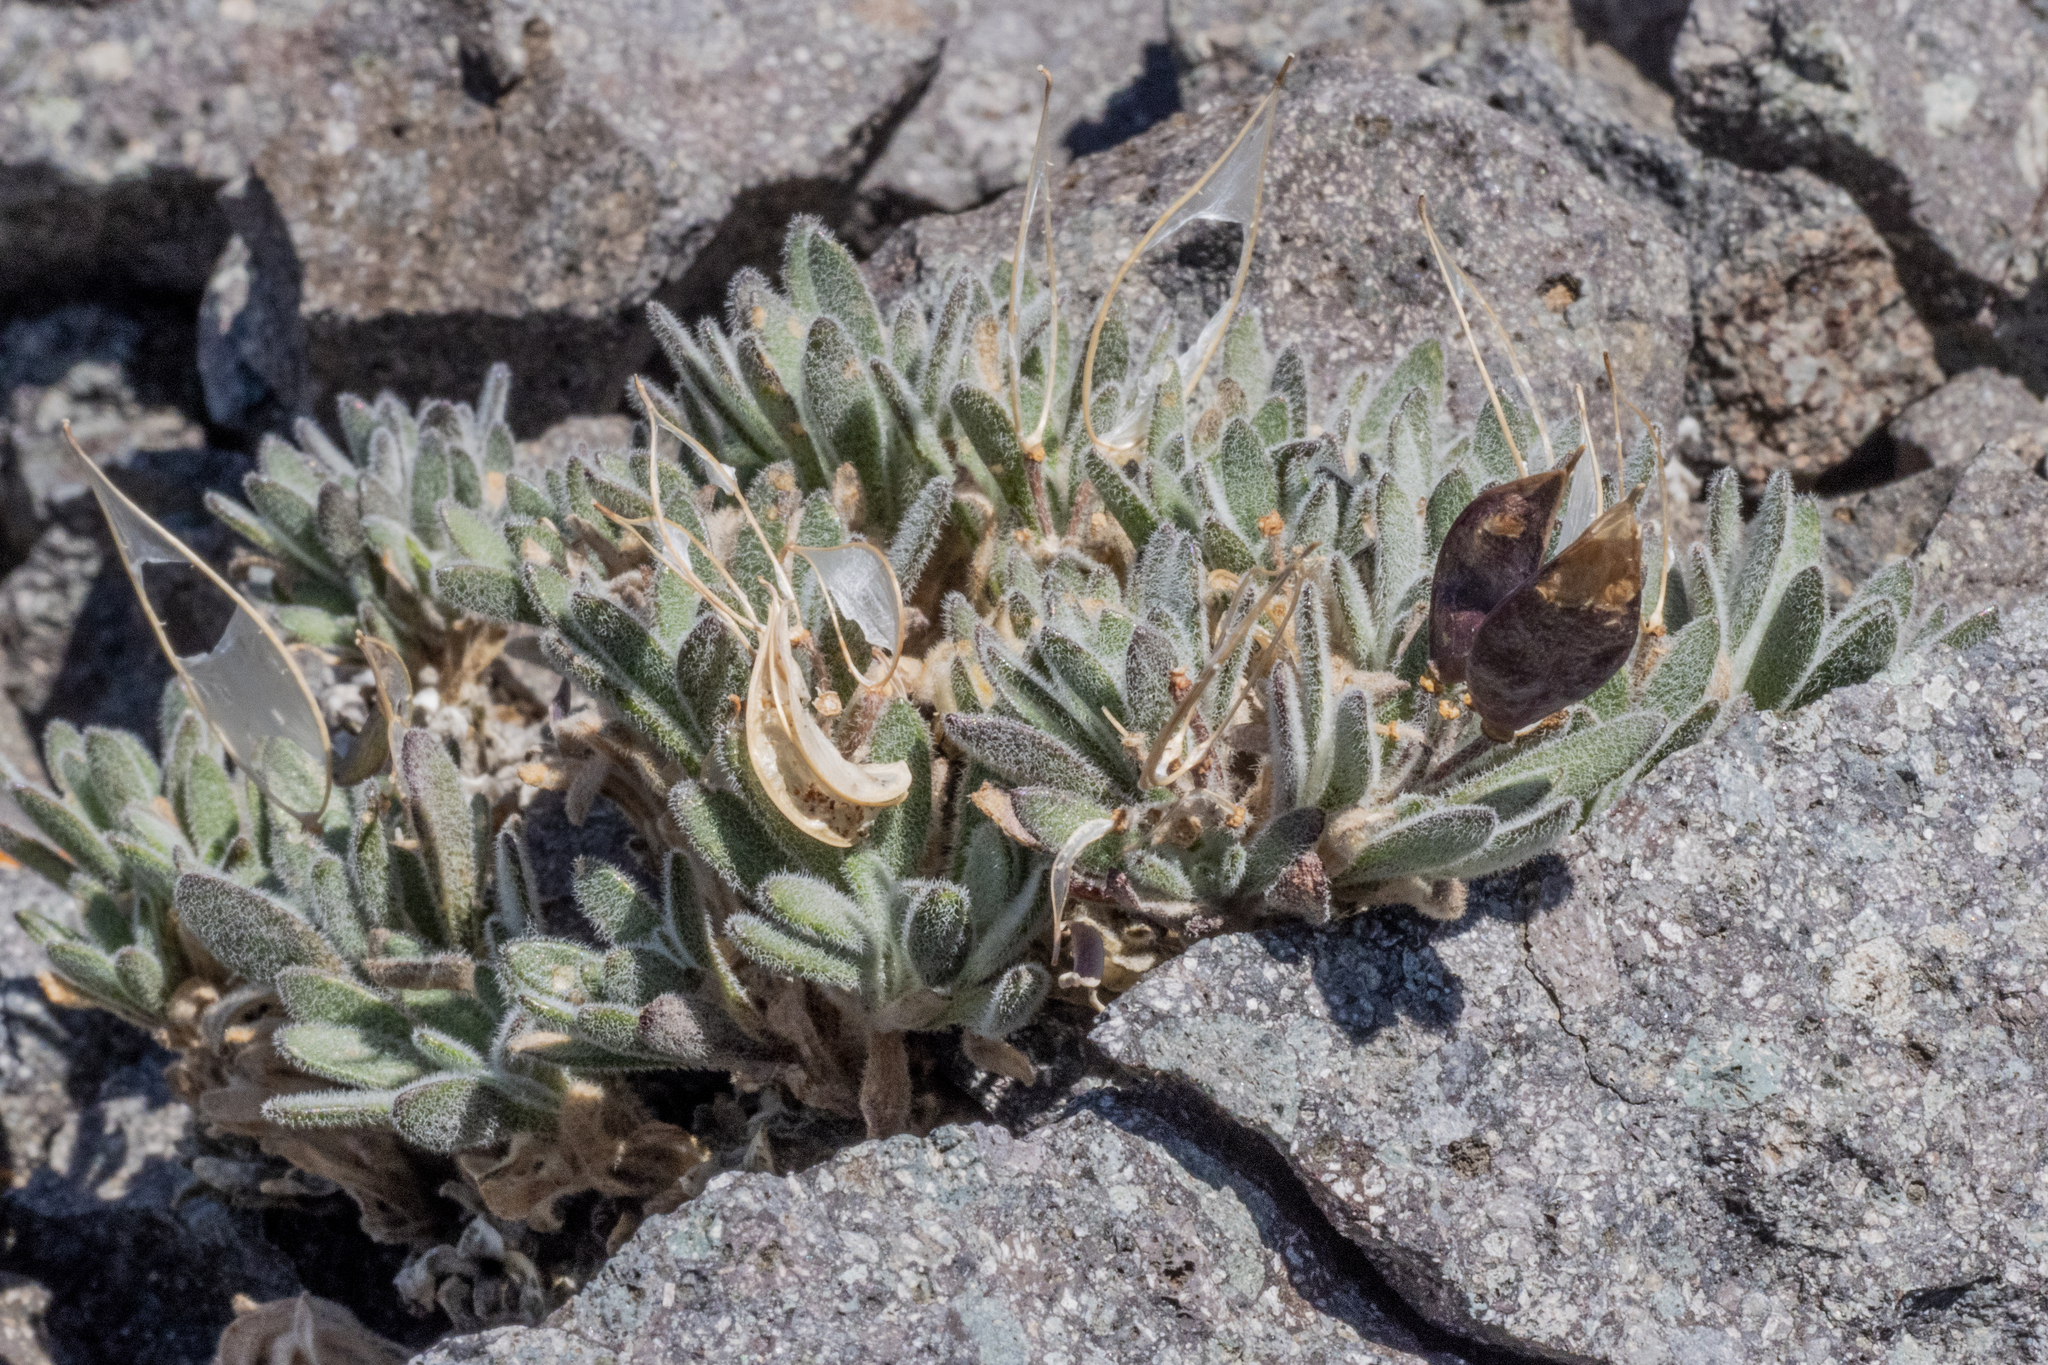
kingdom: Plantae
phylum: Tracheophyta
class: Magnoliopsida
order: Brassicales
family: Brassicaceae
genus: Anelsonia
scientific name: Anelsonia eurycarpa
